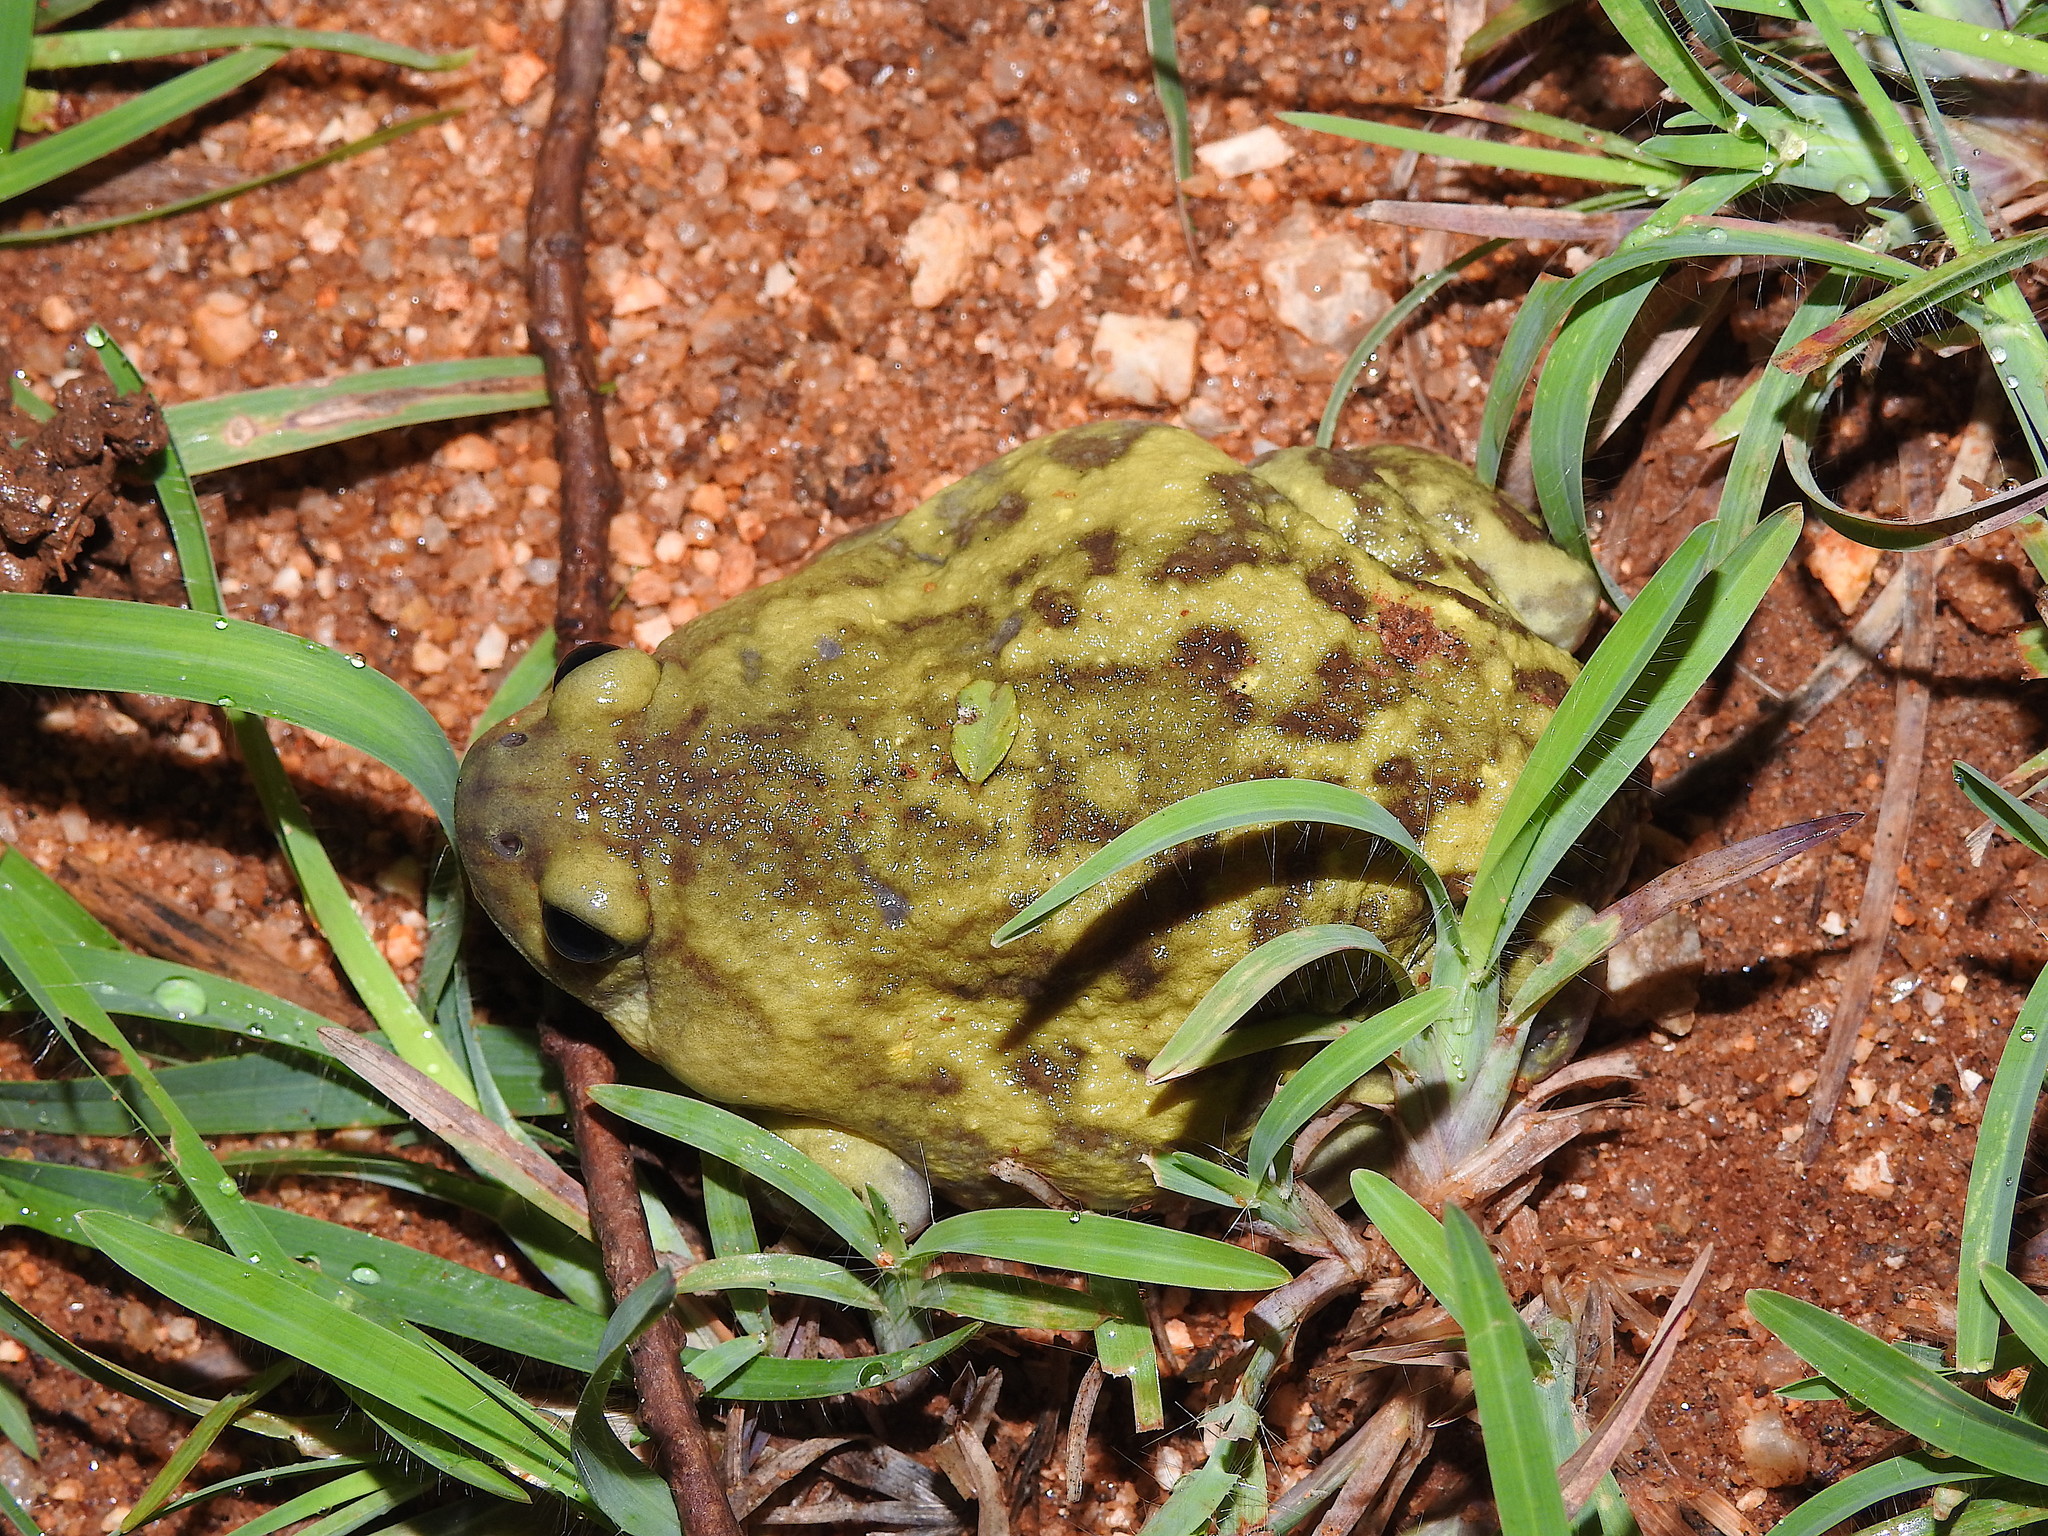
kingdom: Animalia
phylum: Chordata
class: Amphibia
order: Anura
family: Microhylidae
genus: Uperodon
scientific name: Uperodon systoma
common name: Balloon frog
